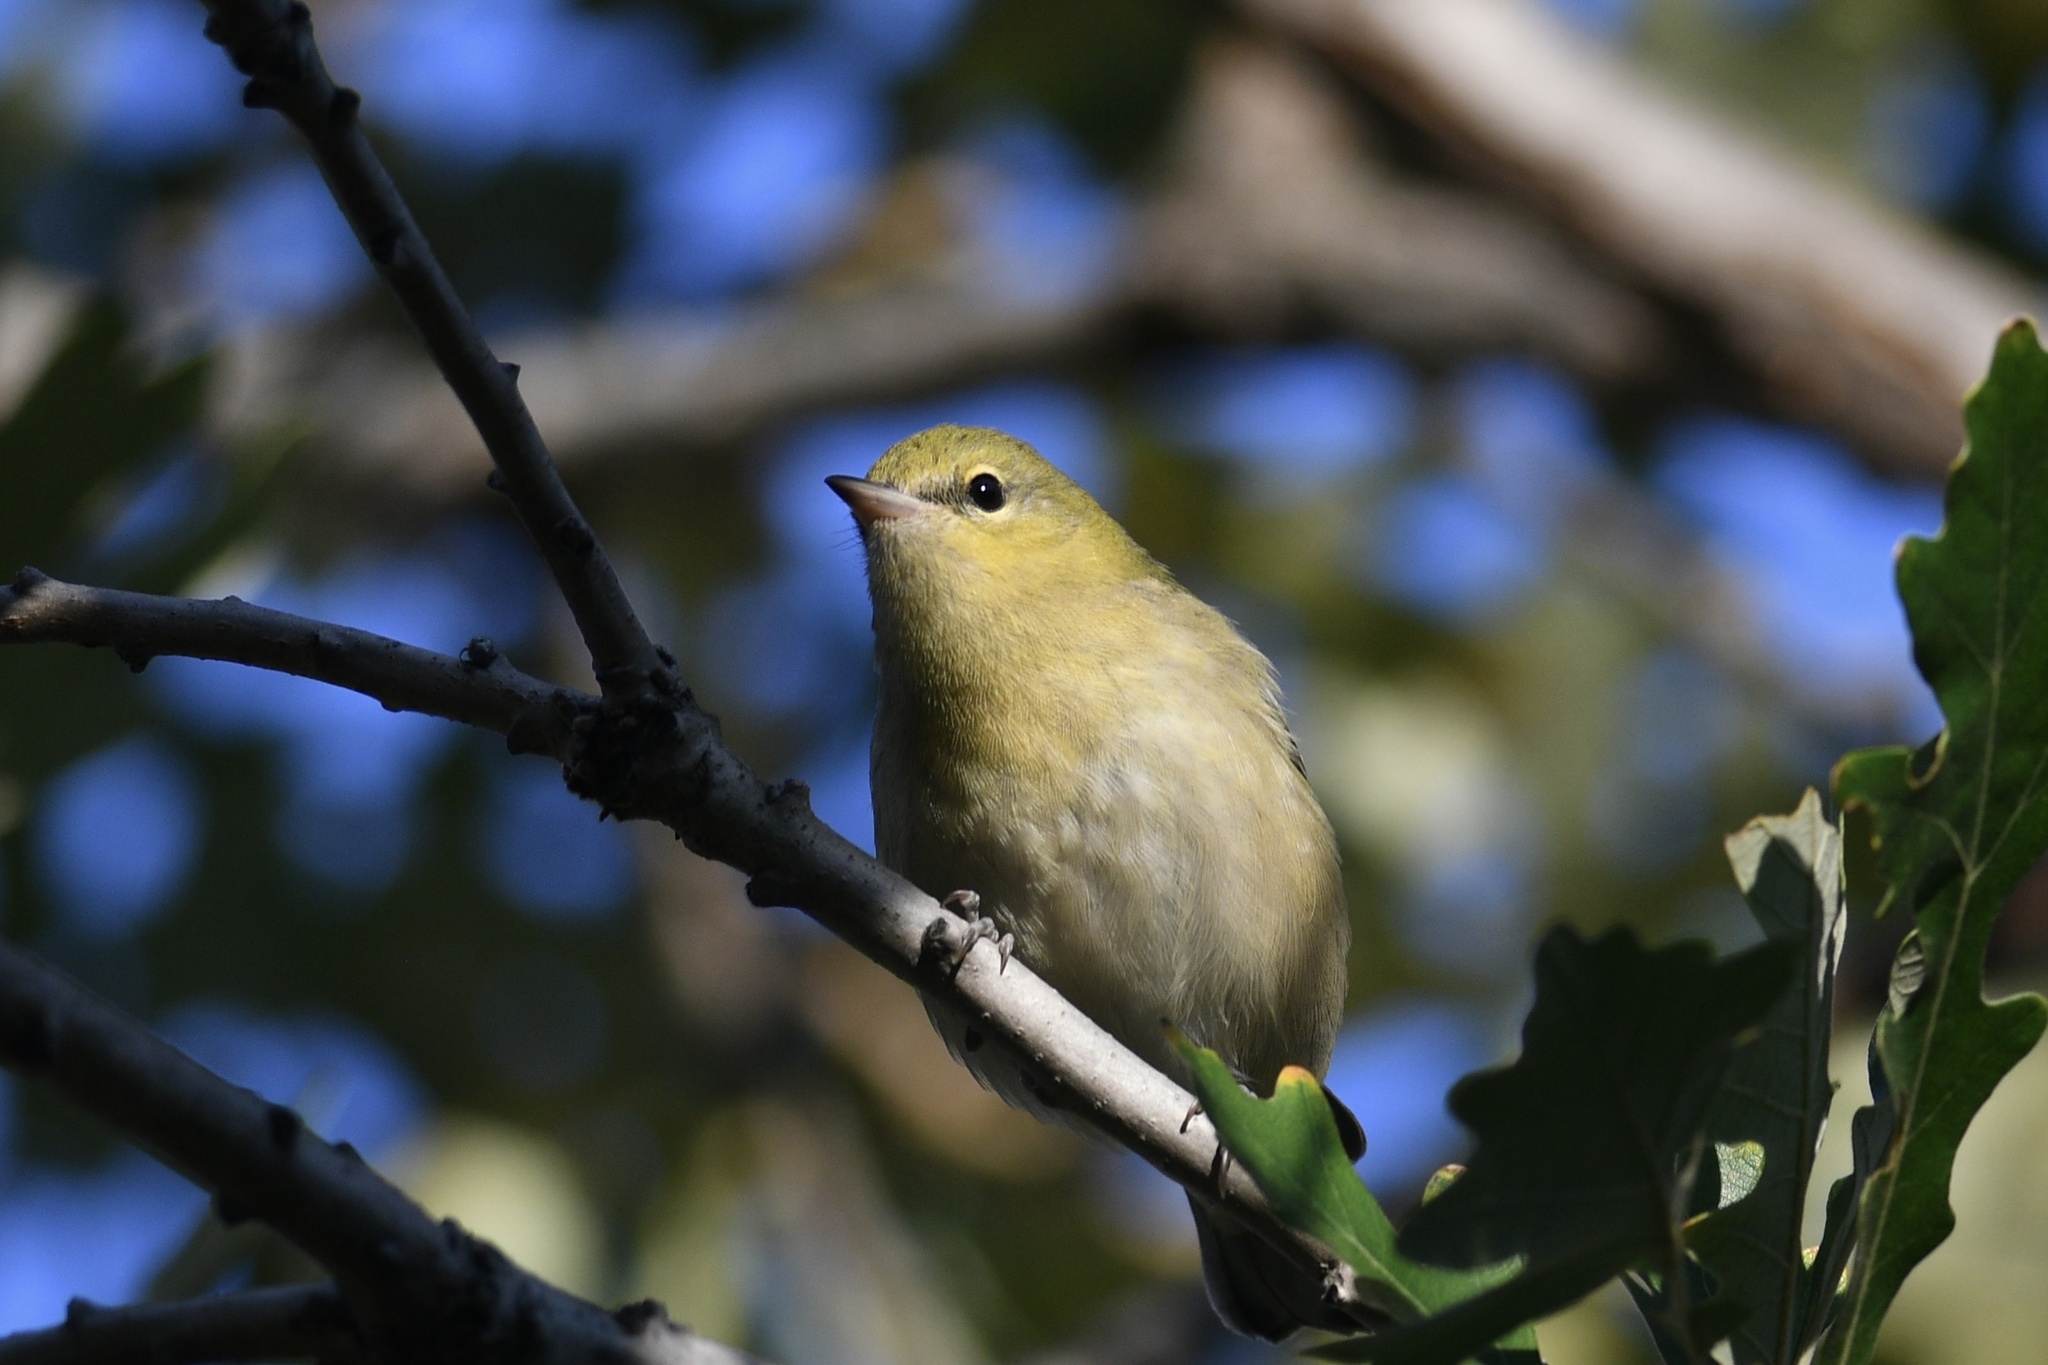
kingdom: Animalia
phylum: Chordata
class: Aves
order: Passeriformes
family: Parulidae
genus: Setophaga
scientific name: Setophaga castanea
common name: Bay-breasted warbler
